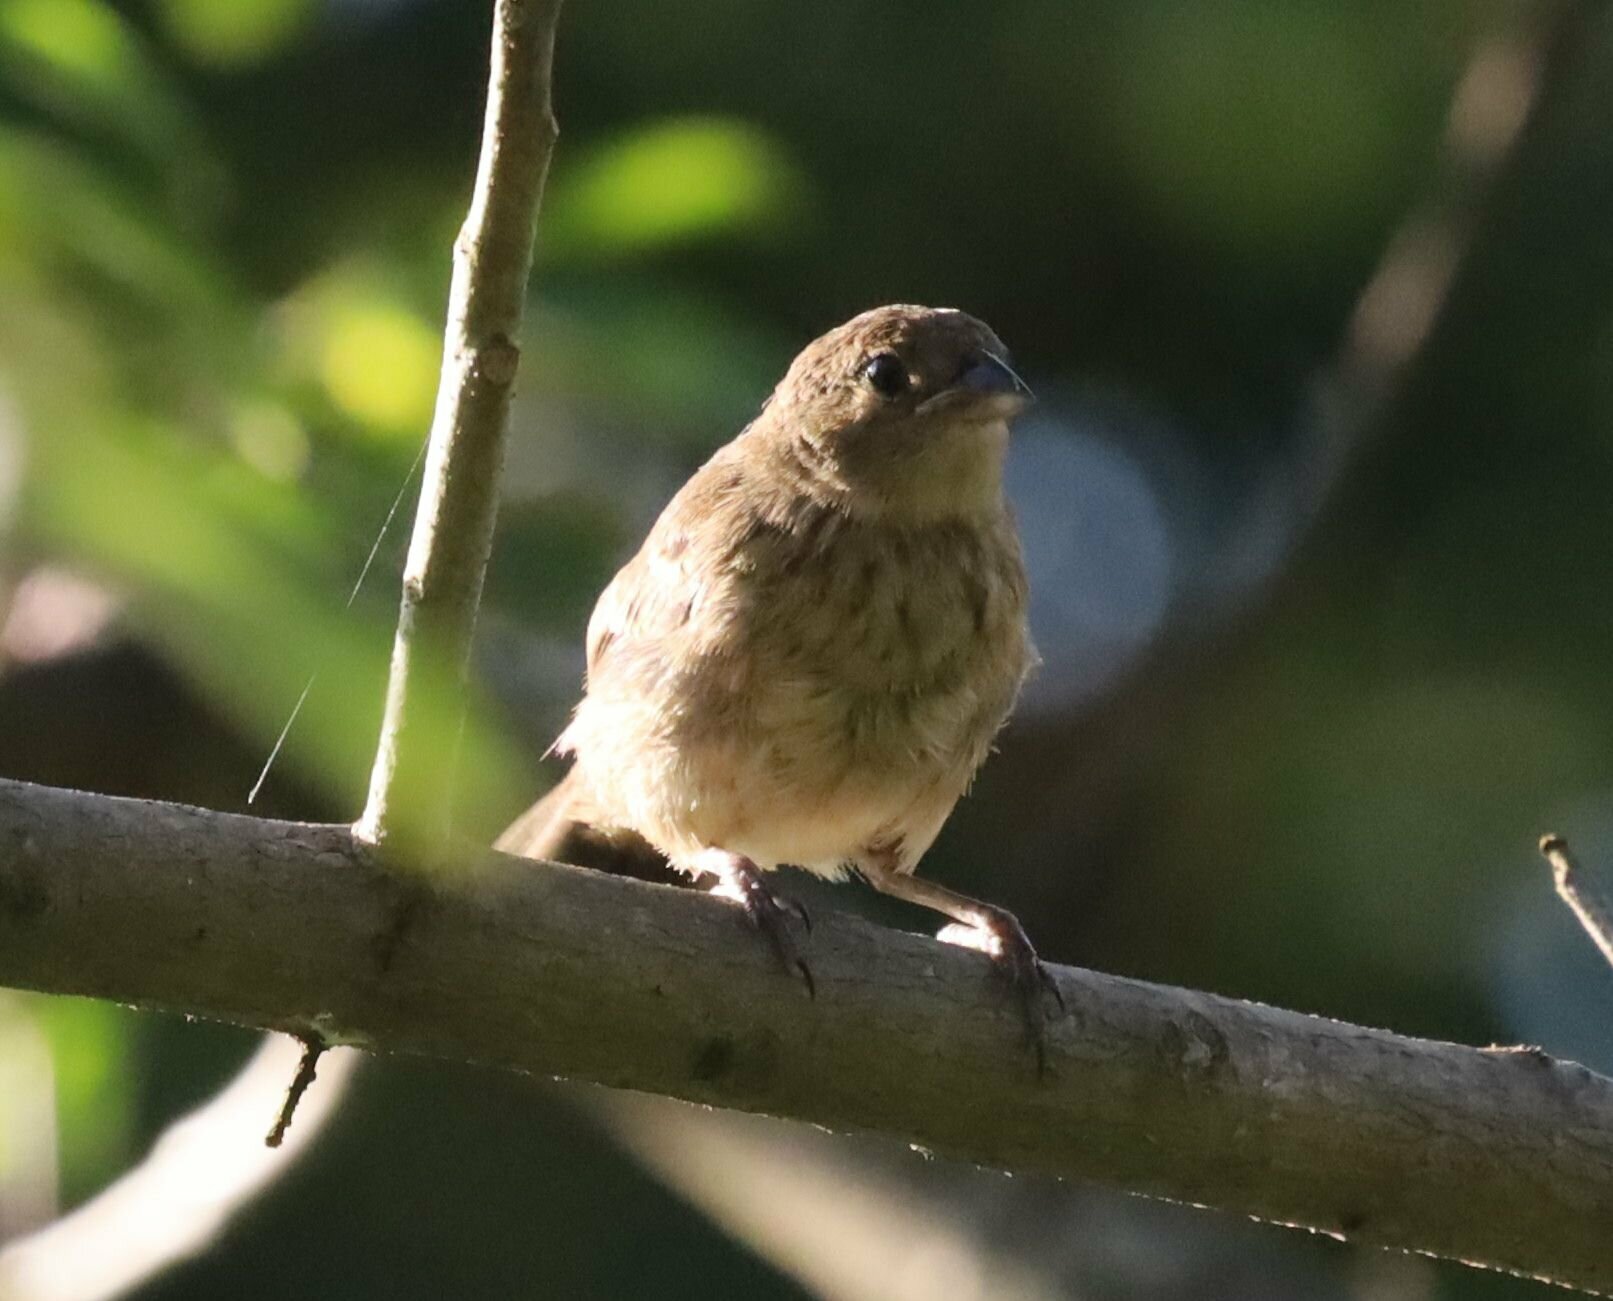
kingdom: Animalia
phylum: Chordata
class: Aves
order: Passeriformes
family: Thraupidae
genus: Volatinia
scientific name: Volatinia jacarina
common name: Blue-black grassquit
